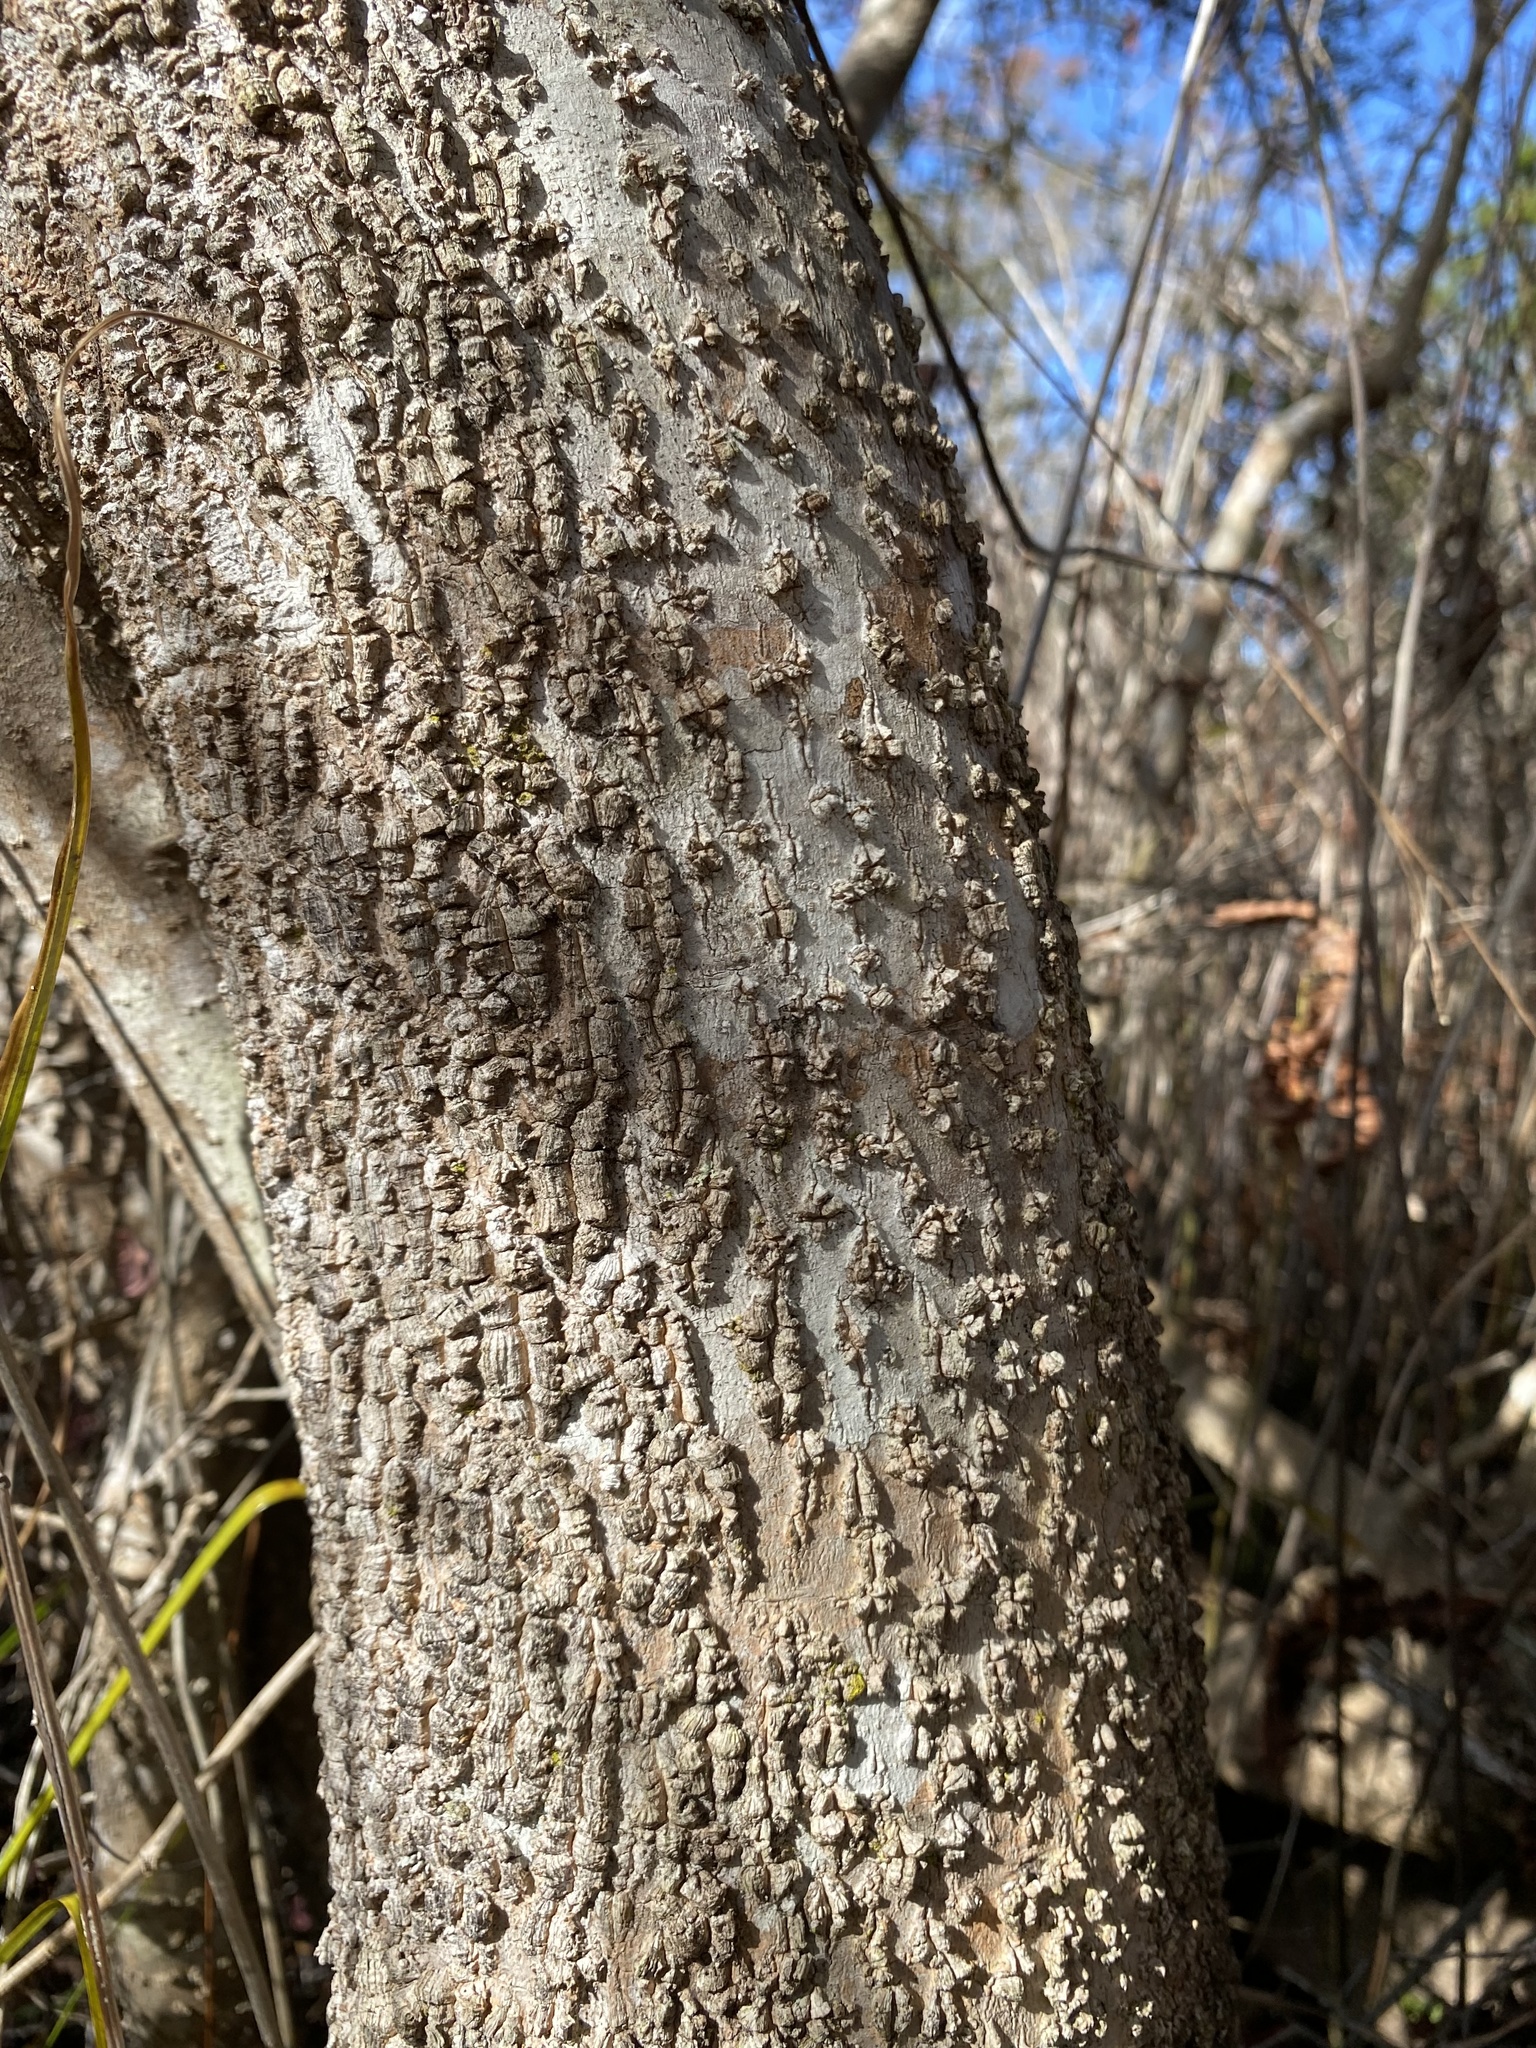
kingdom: Plantae
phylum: Tracheophyta
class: Magnoliopsida
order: Aquifoliales
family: Aquifoliaceae
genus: Ilex
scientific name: Ilex myrtifolia
